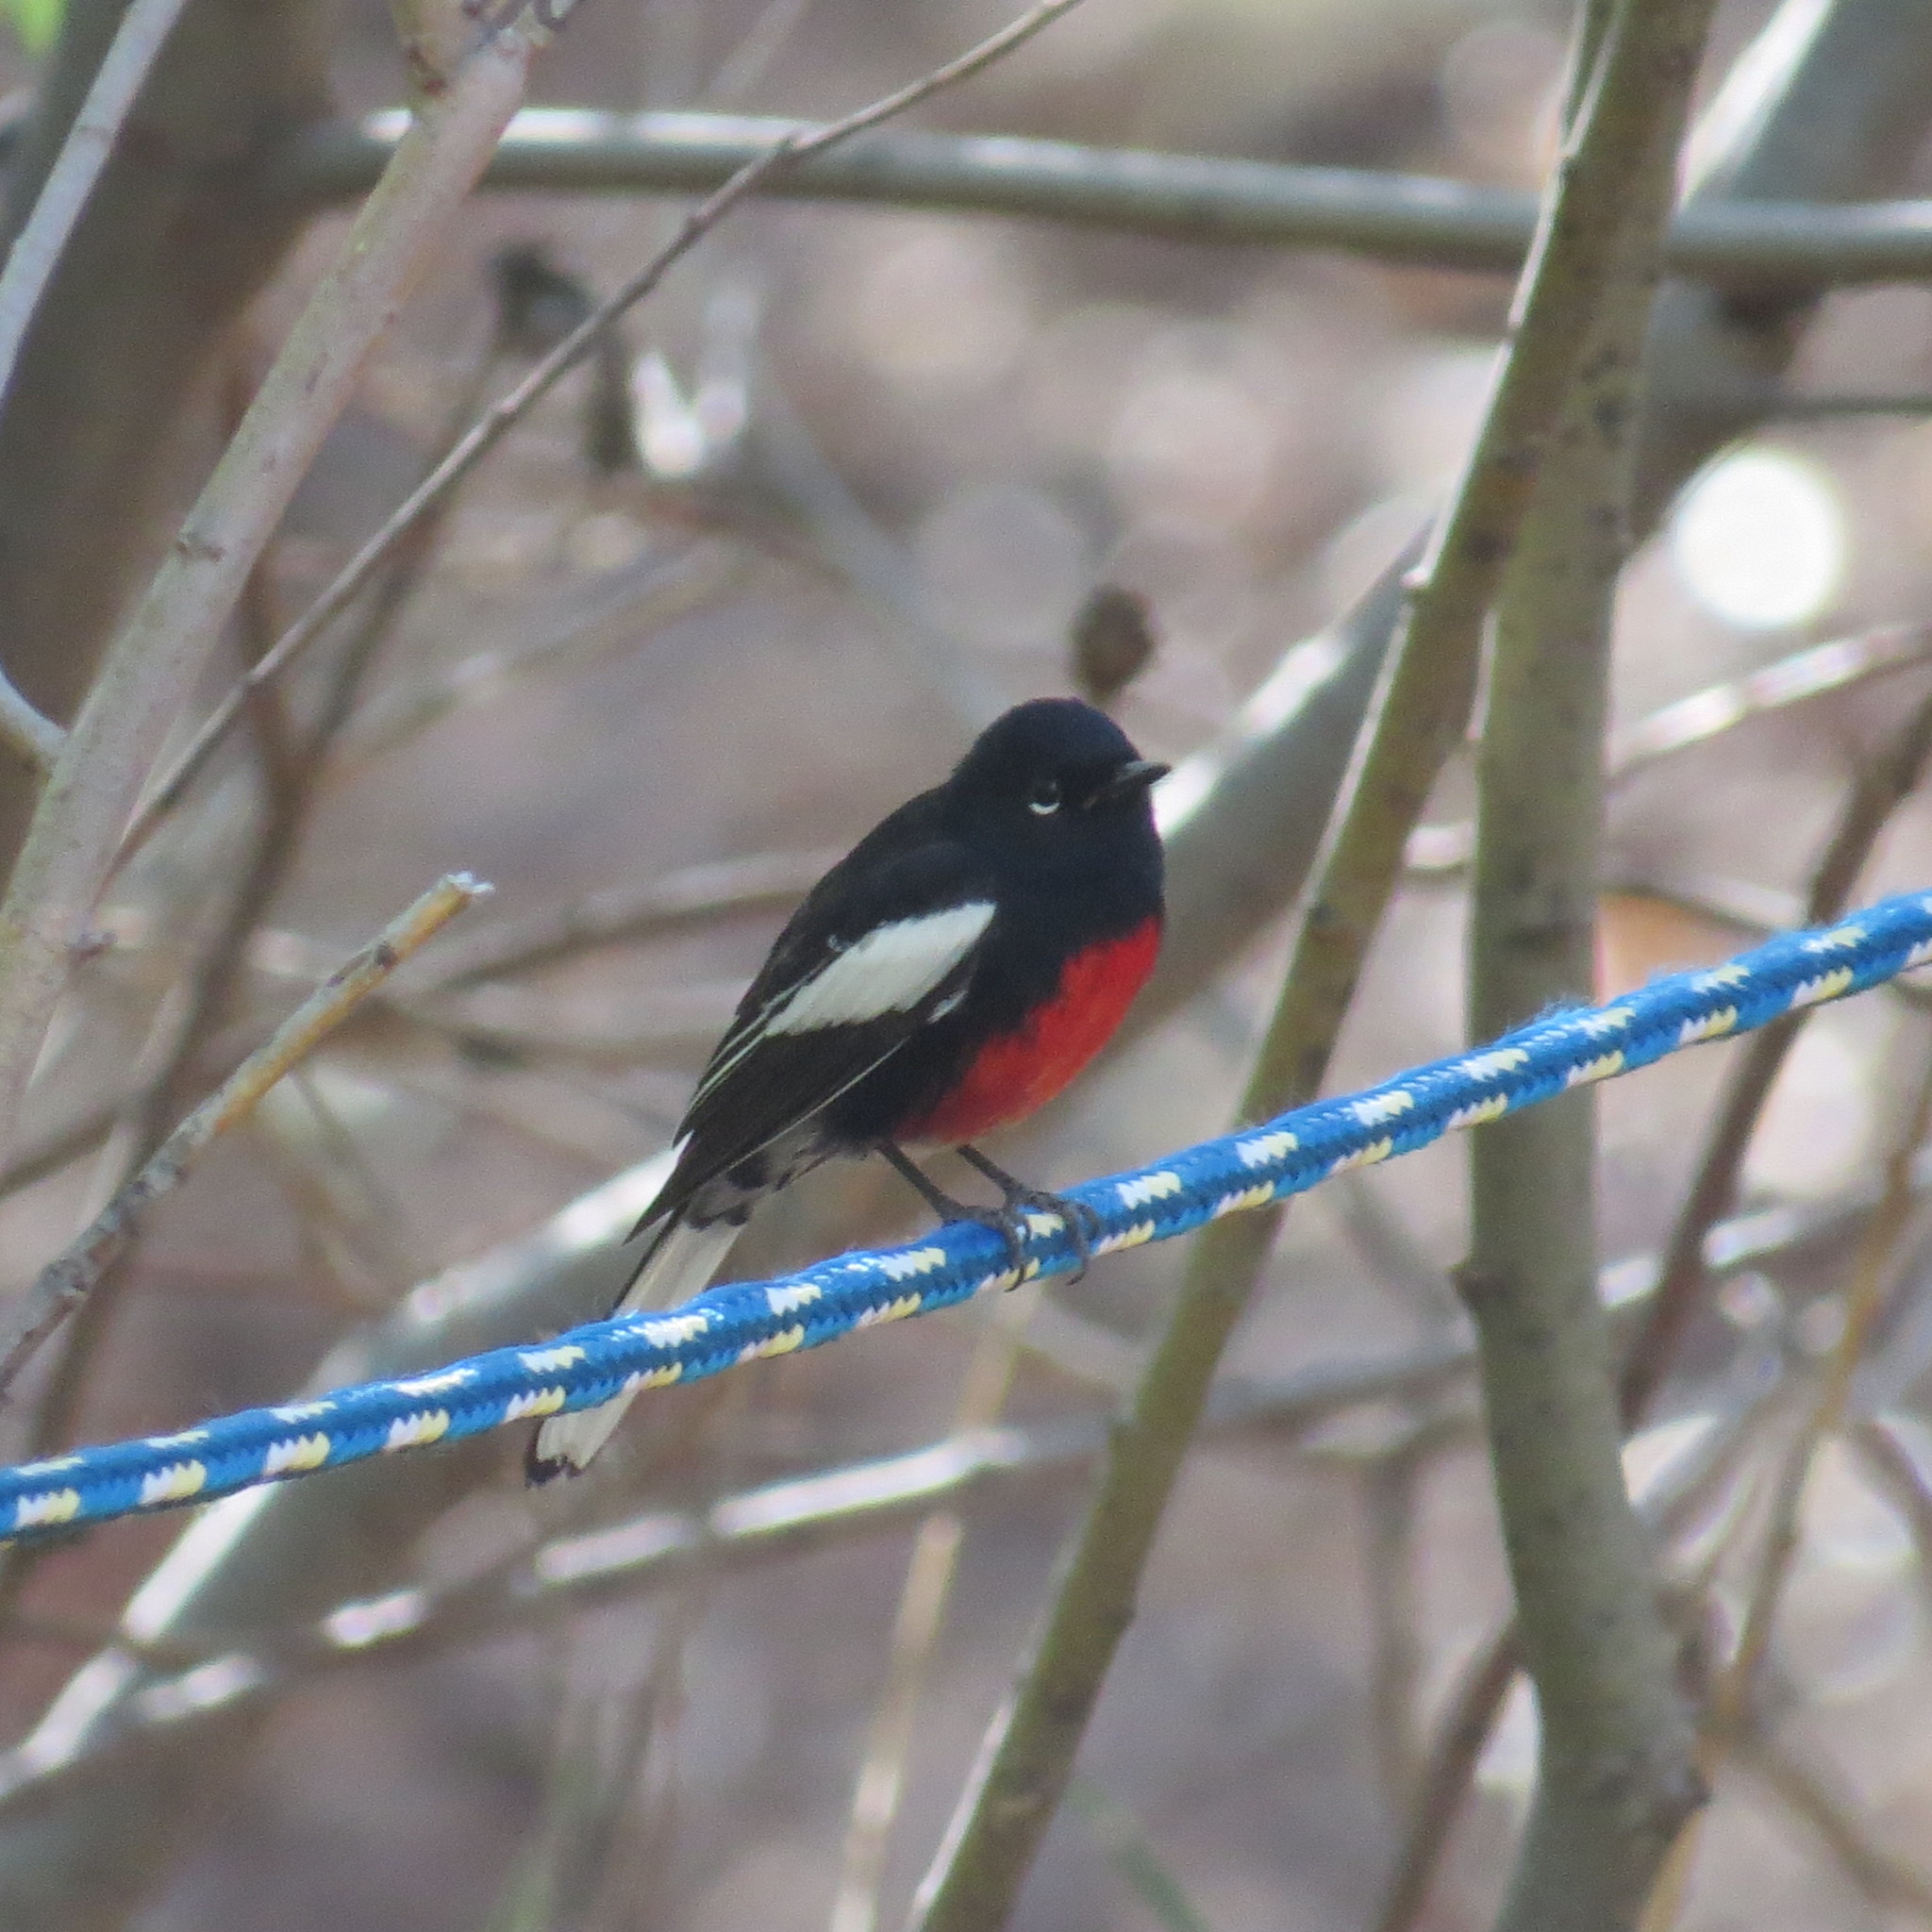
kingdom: Animalia
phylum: Chordata
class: Aves
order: Passeriformes
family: Parulidae
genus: Myioborus
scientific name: Myioborus pictus
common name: Painted whitestart
